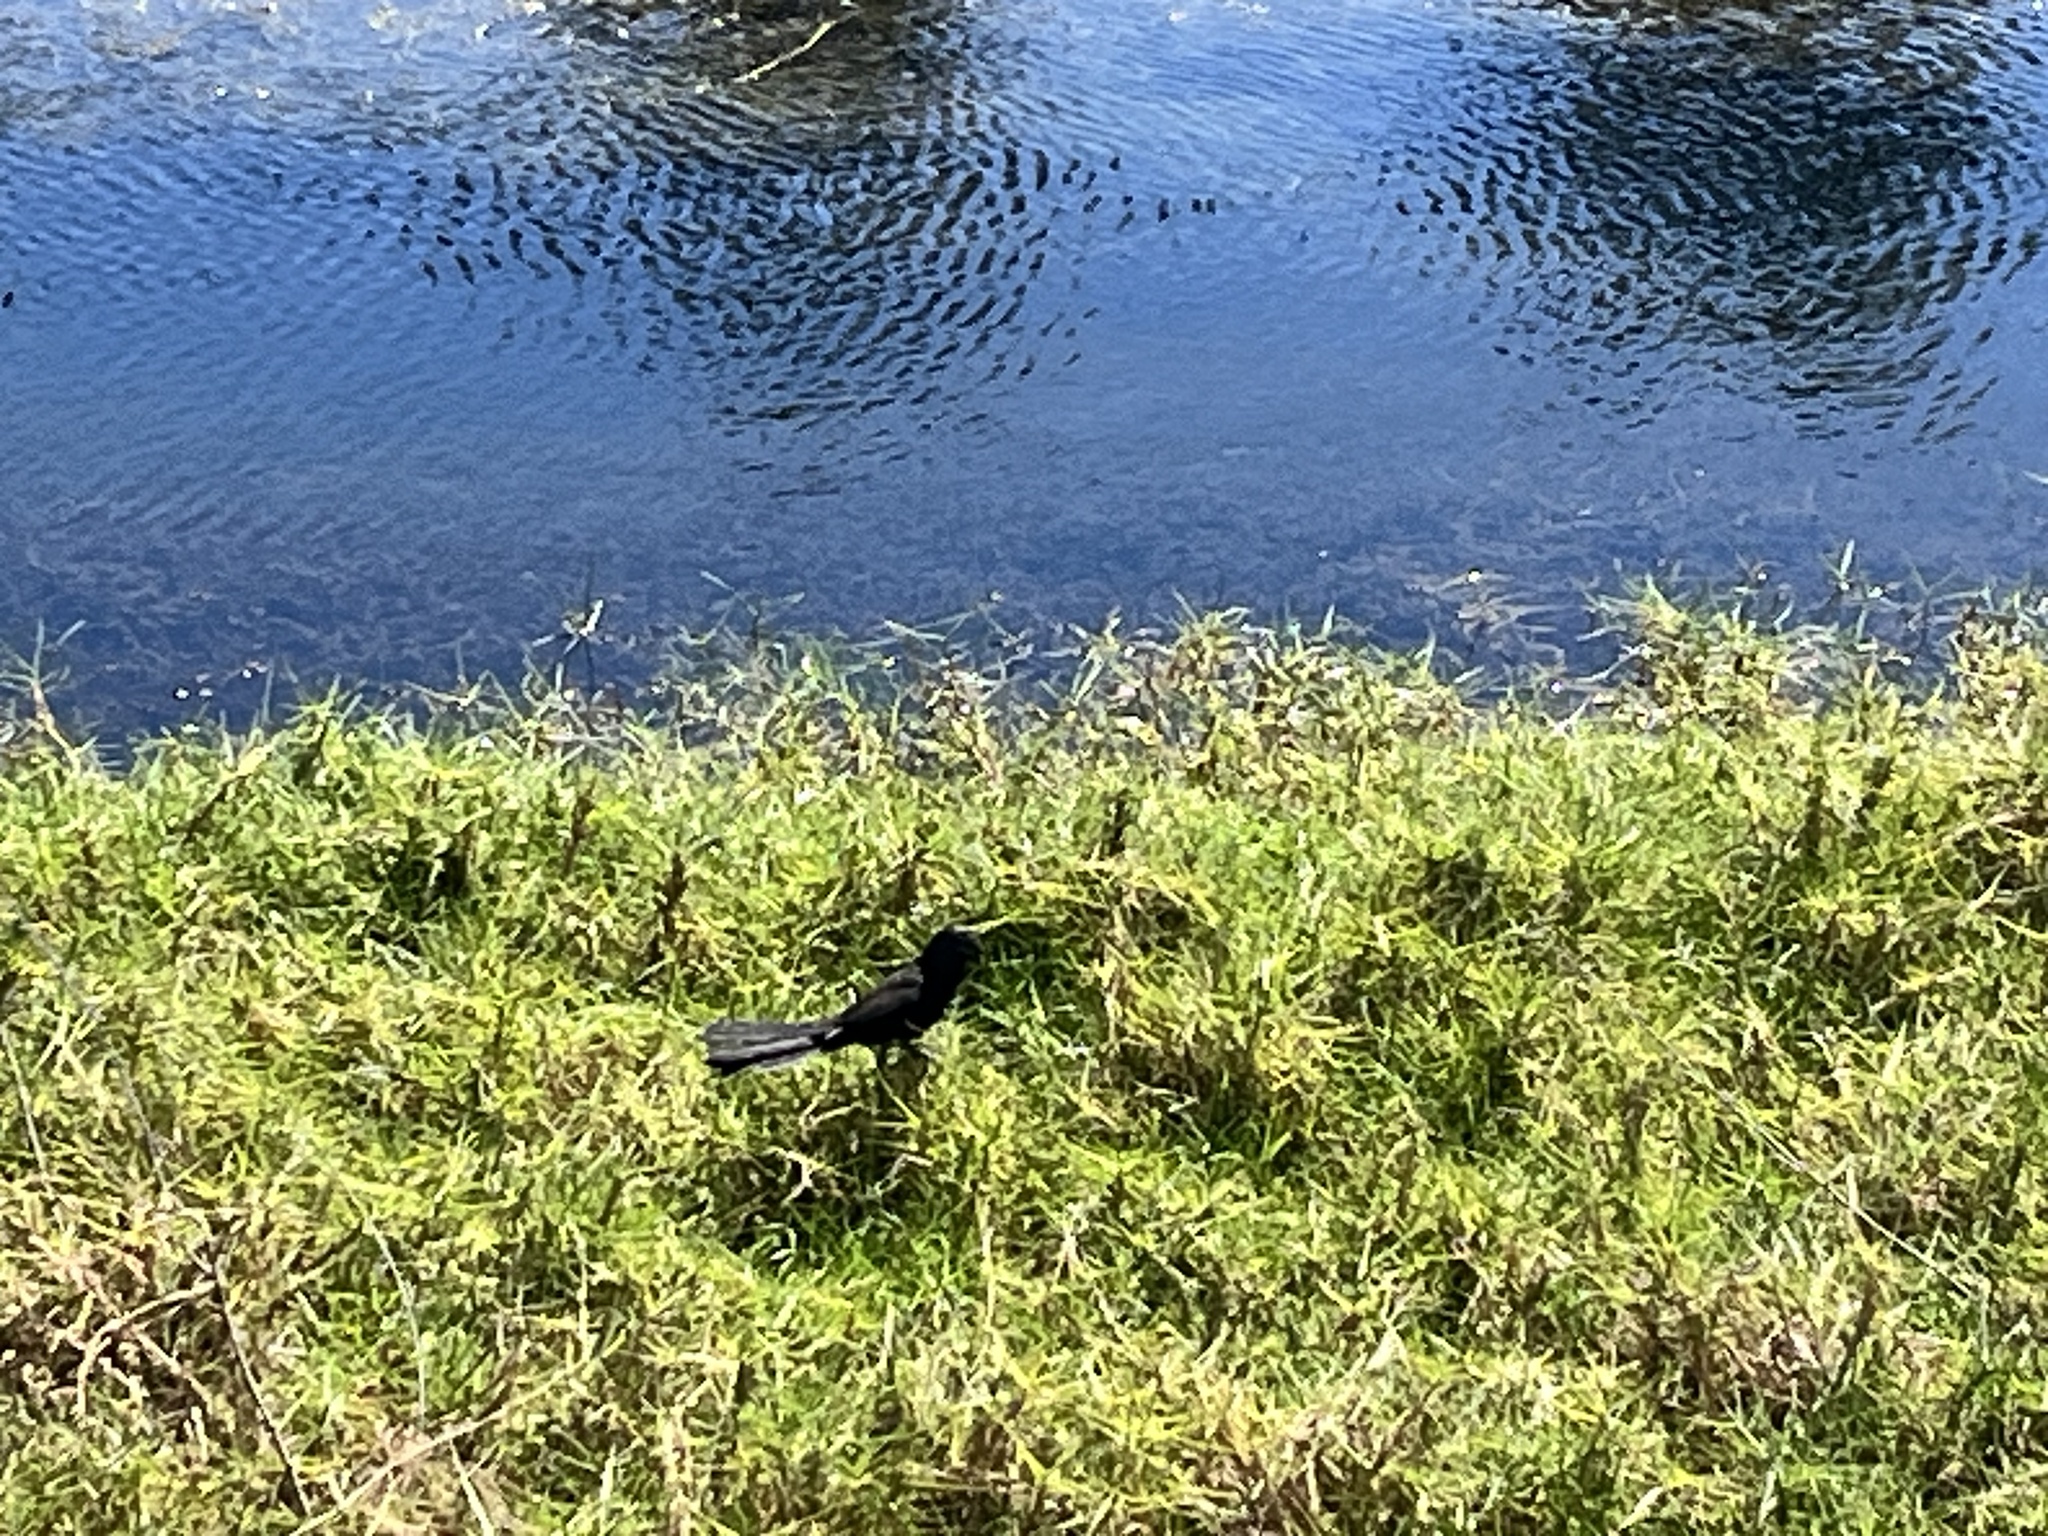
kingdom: Animalia
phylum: Chordata
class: Aves
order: Cuculiformes
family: Cuculidae
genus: Crotophaga
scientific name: Crotophaga sulcirostris
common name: Groove-billed ani
